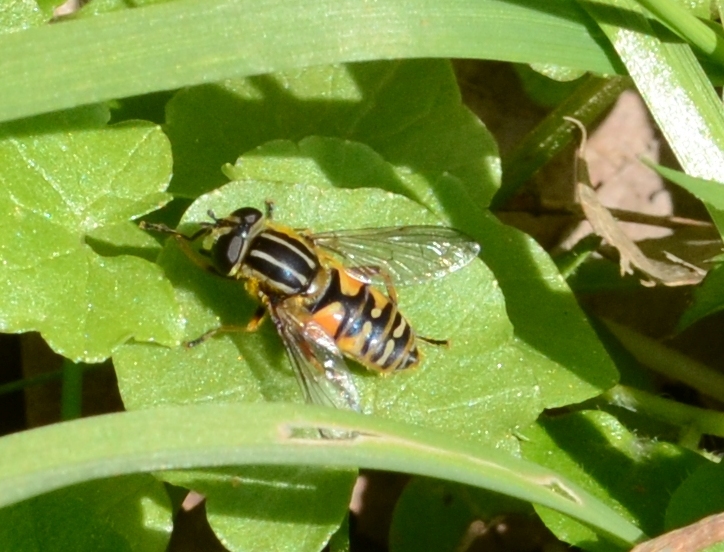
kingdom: Animalia
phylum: Arthropoda
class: Insecta
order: Diptera
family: Syrphidae
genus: Helophilus
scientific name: Helophilus pendulus
